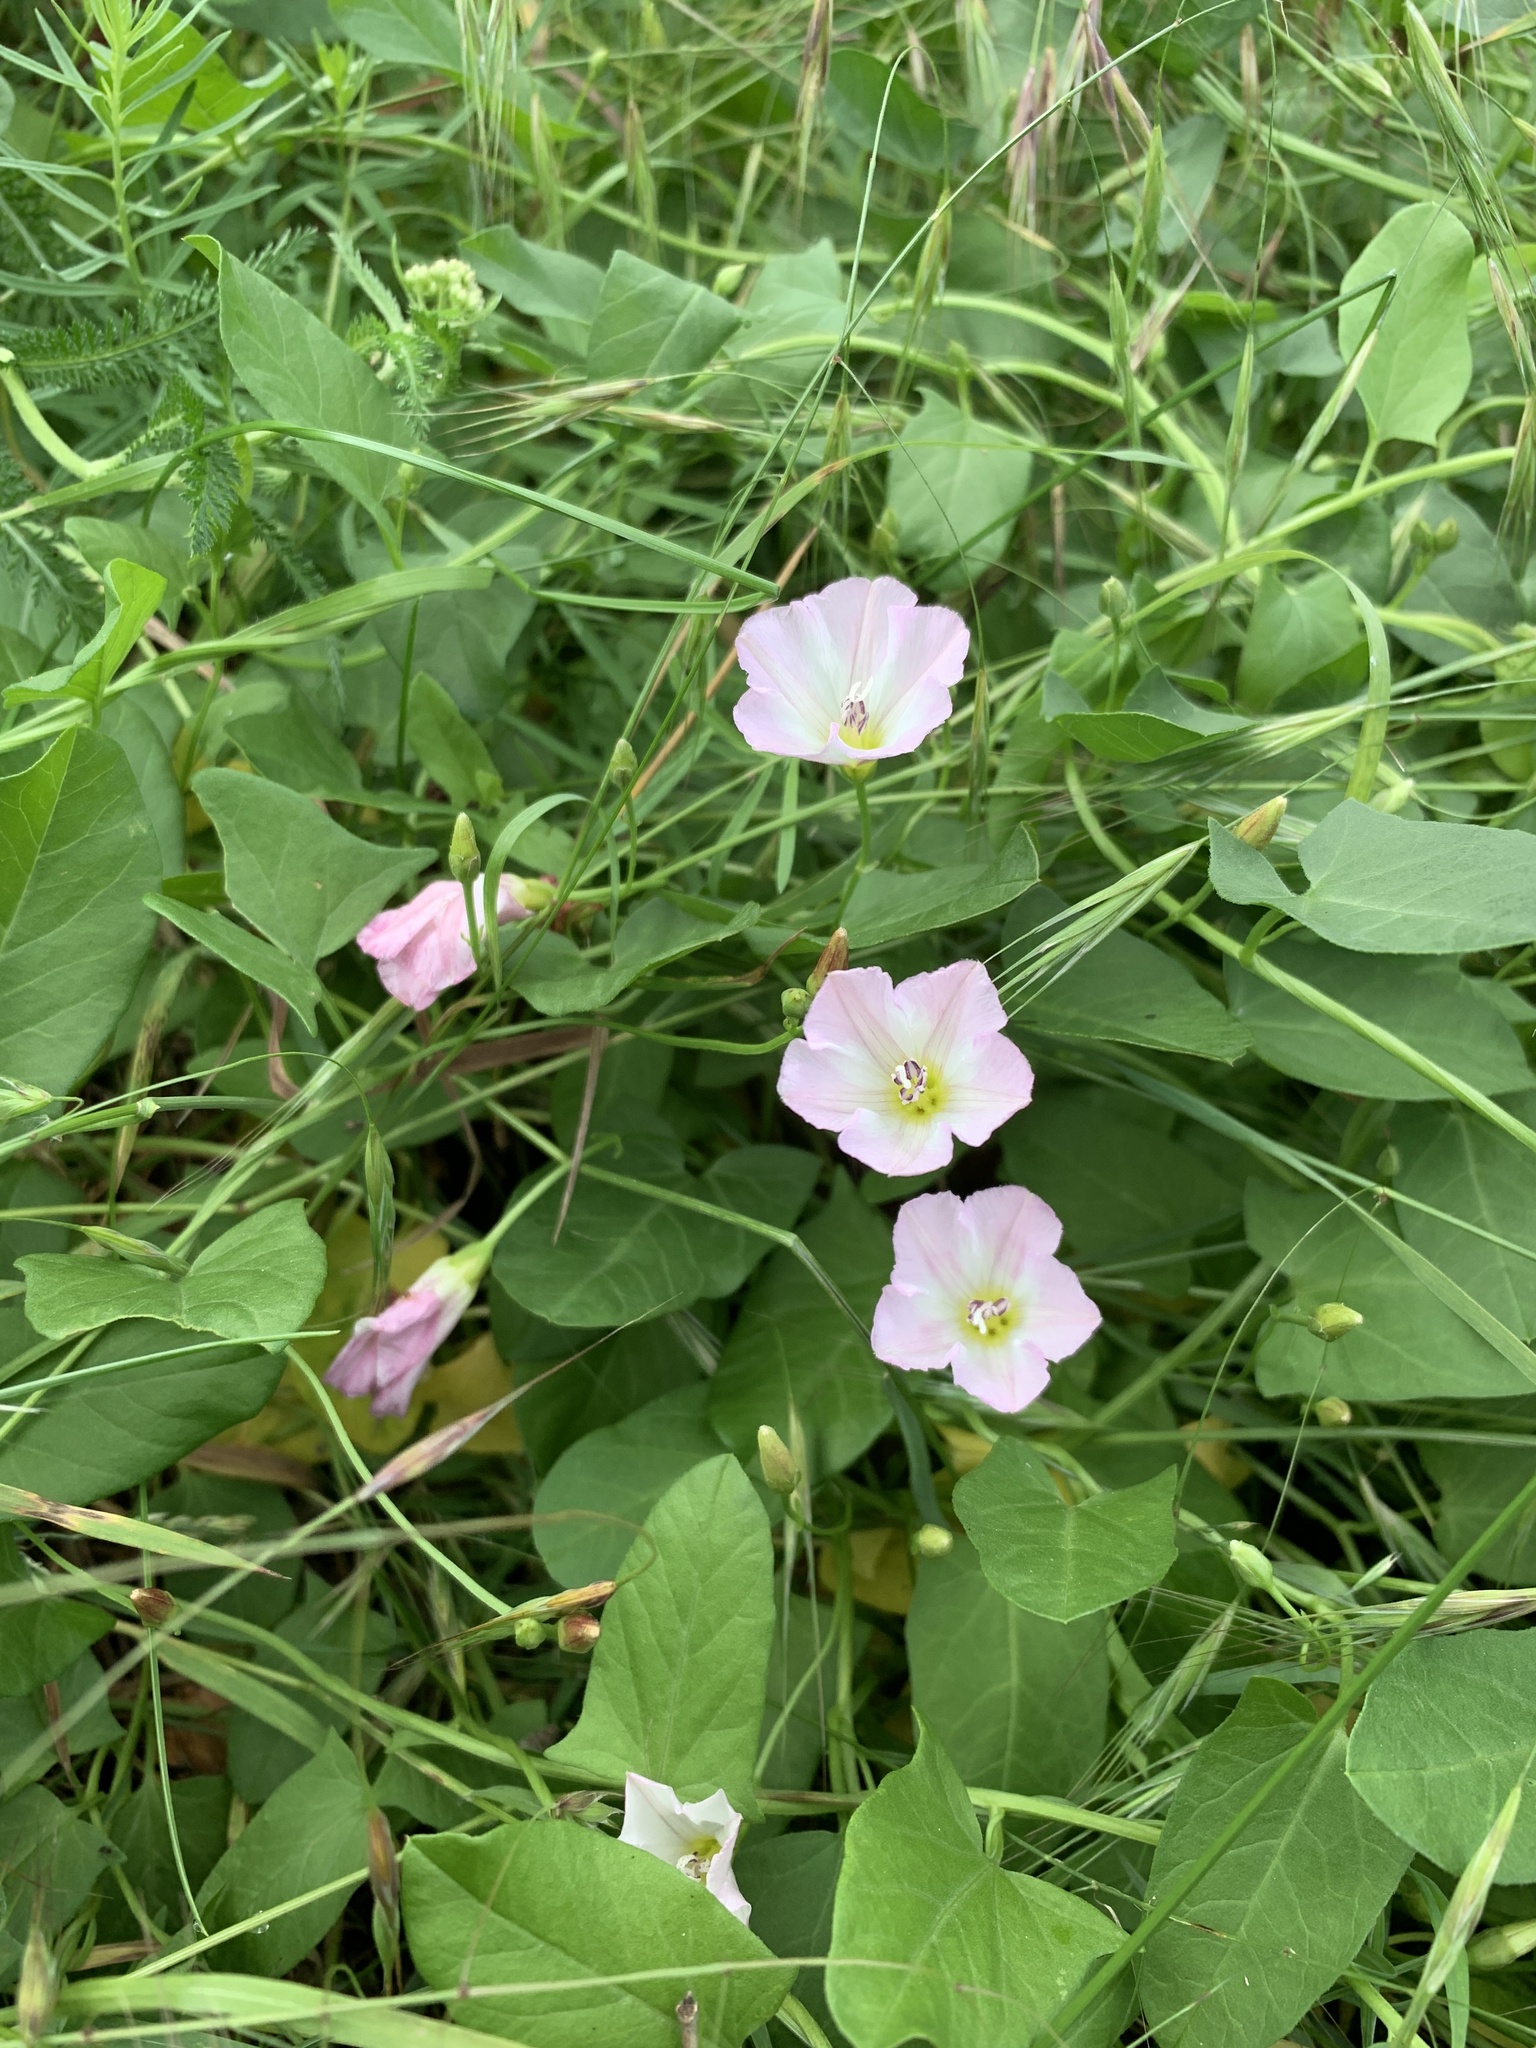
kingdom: Plantae
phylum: Tracheophyta
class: Magnoliopsida
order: Solanales
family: Convolvulaceae
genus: Convolvulus
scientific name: Convolvulus arvensis
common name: Field bindweed
